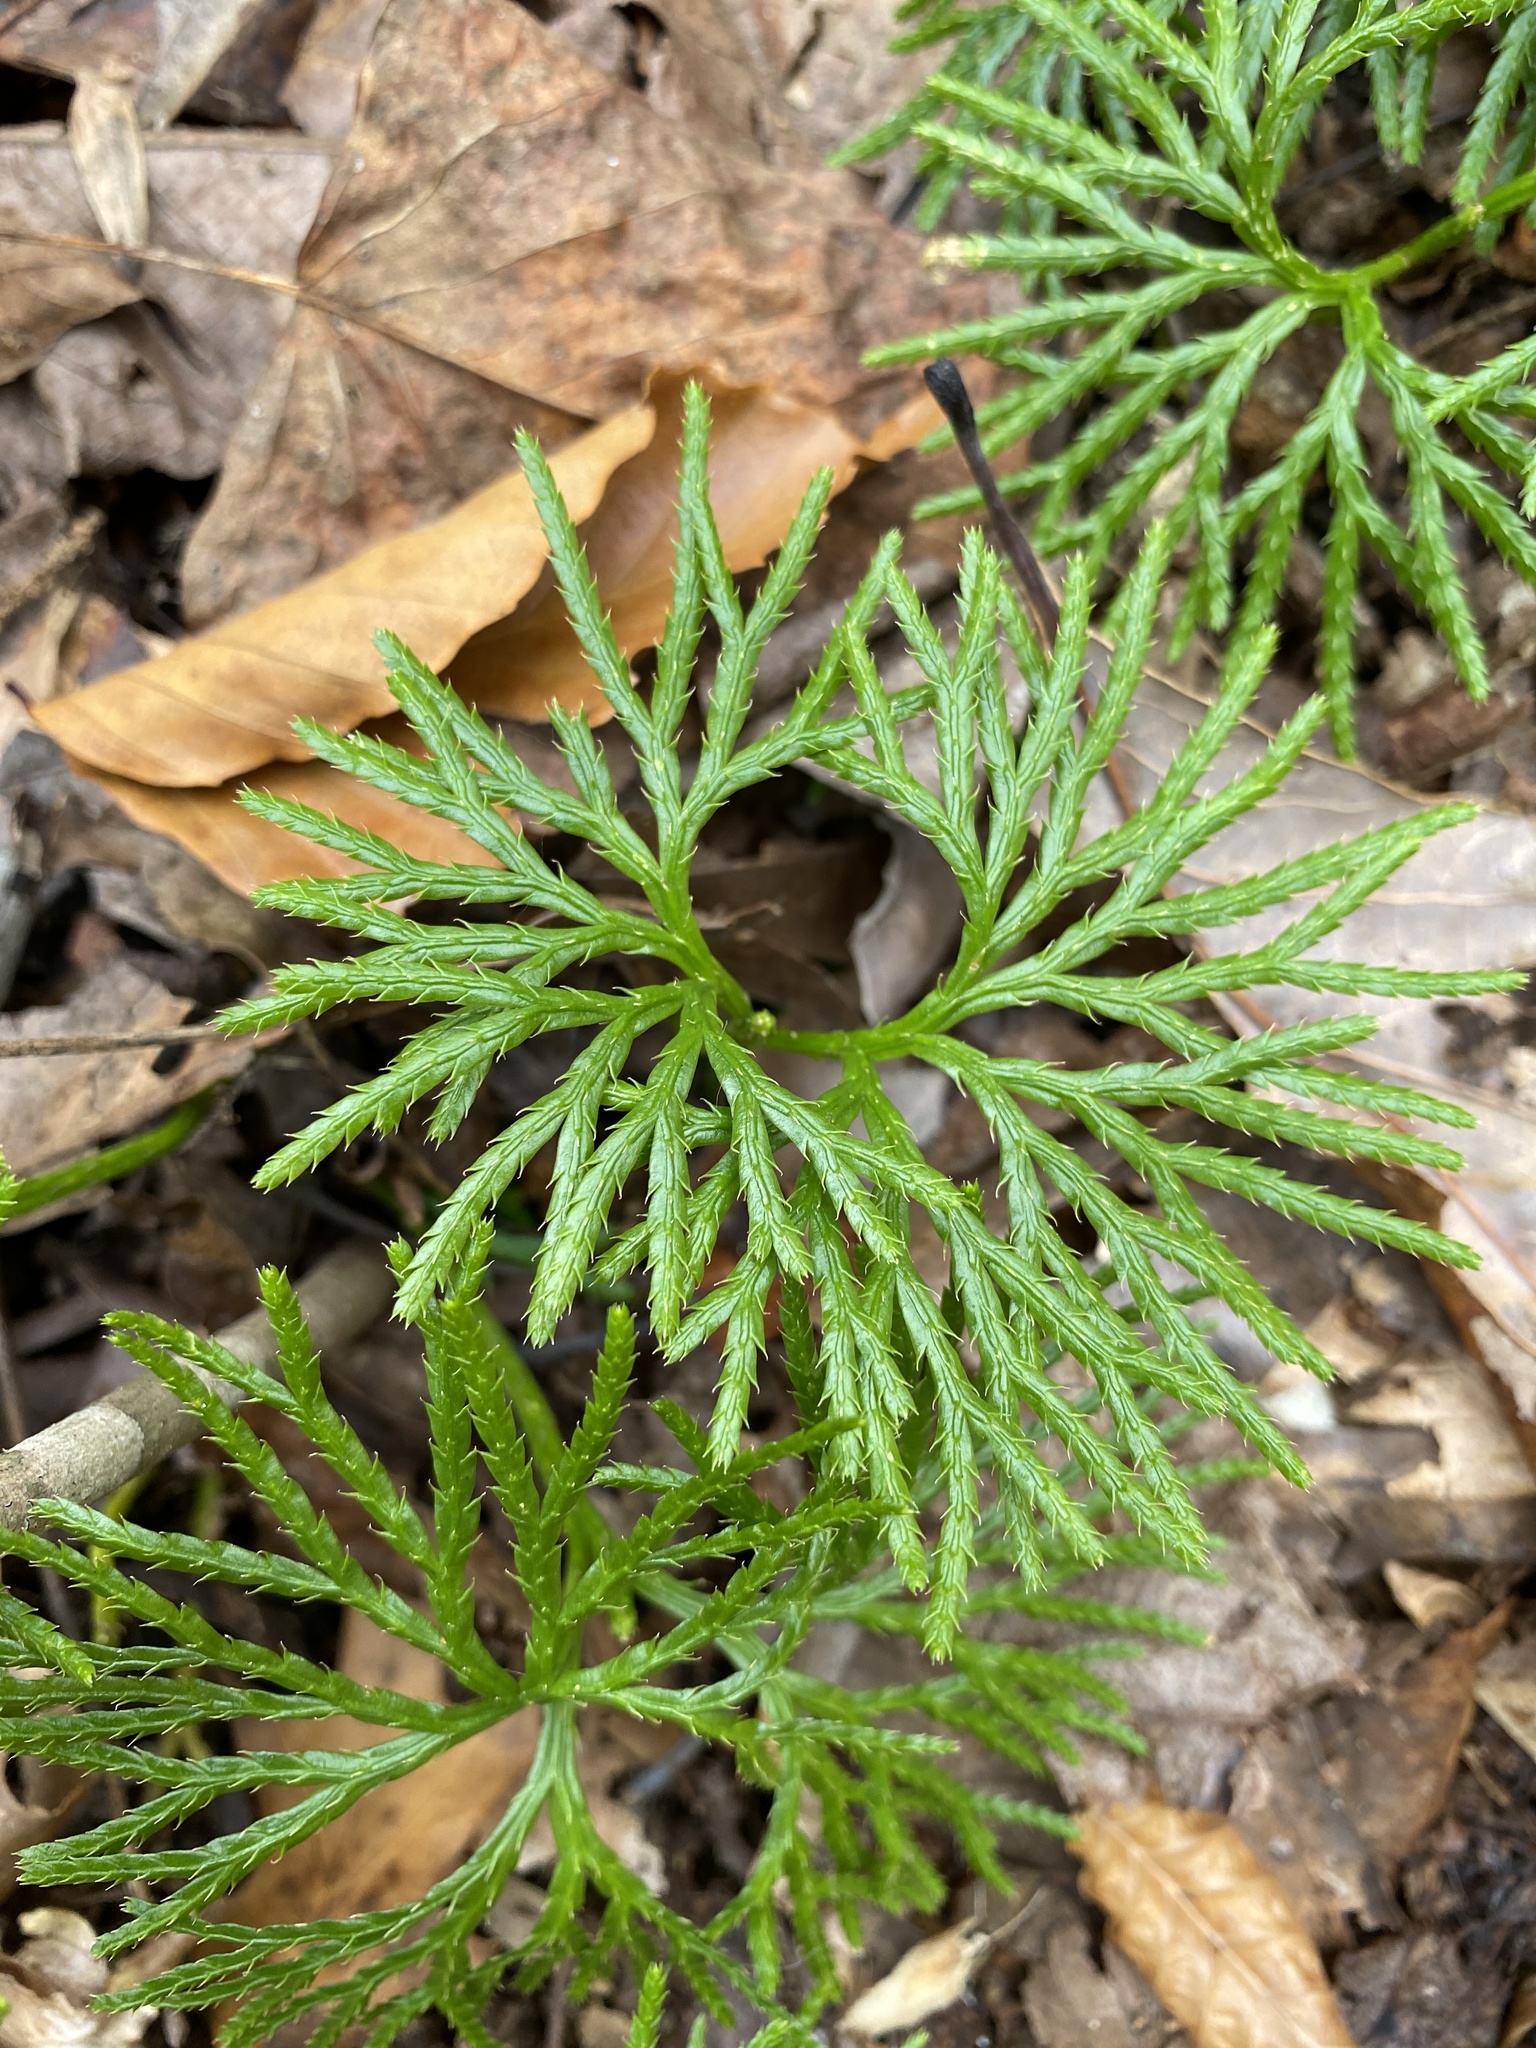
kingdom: Plantae
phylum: Tracheophyta
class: Lycopodiopsida
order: Lycopodiales
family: Lycopodiaceae
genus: Diphasiastrum
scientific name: Diphasiastrum digitatum
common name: Southern running-pine
